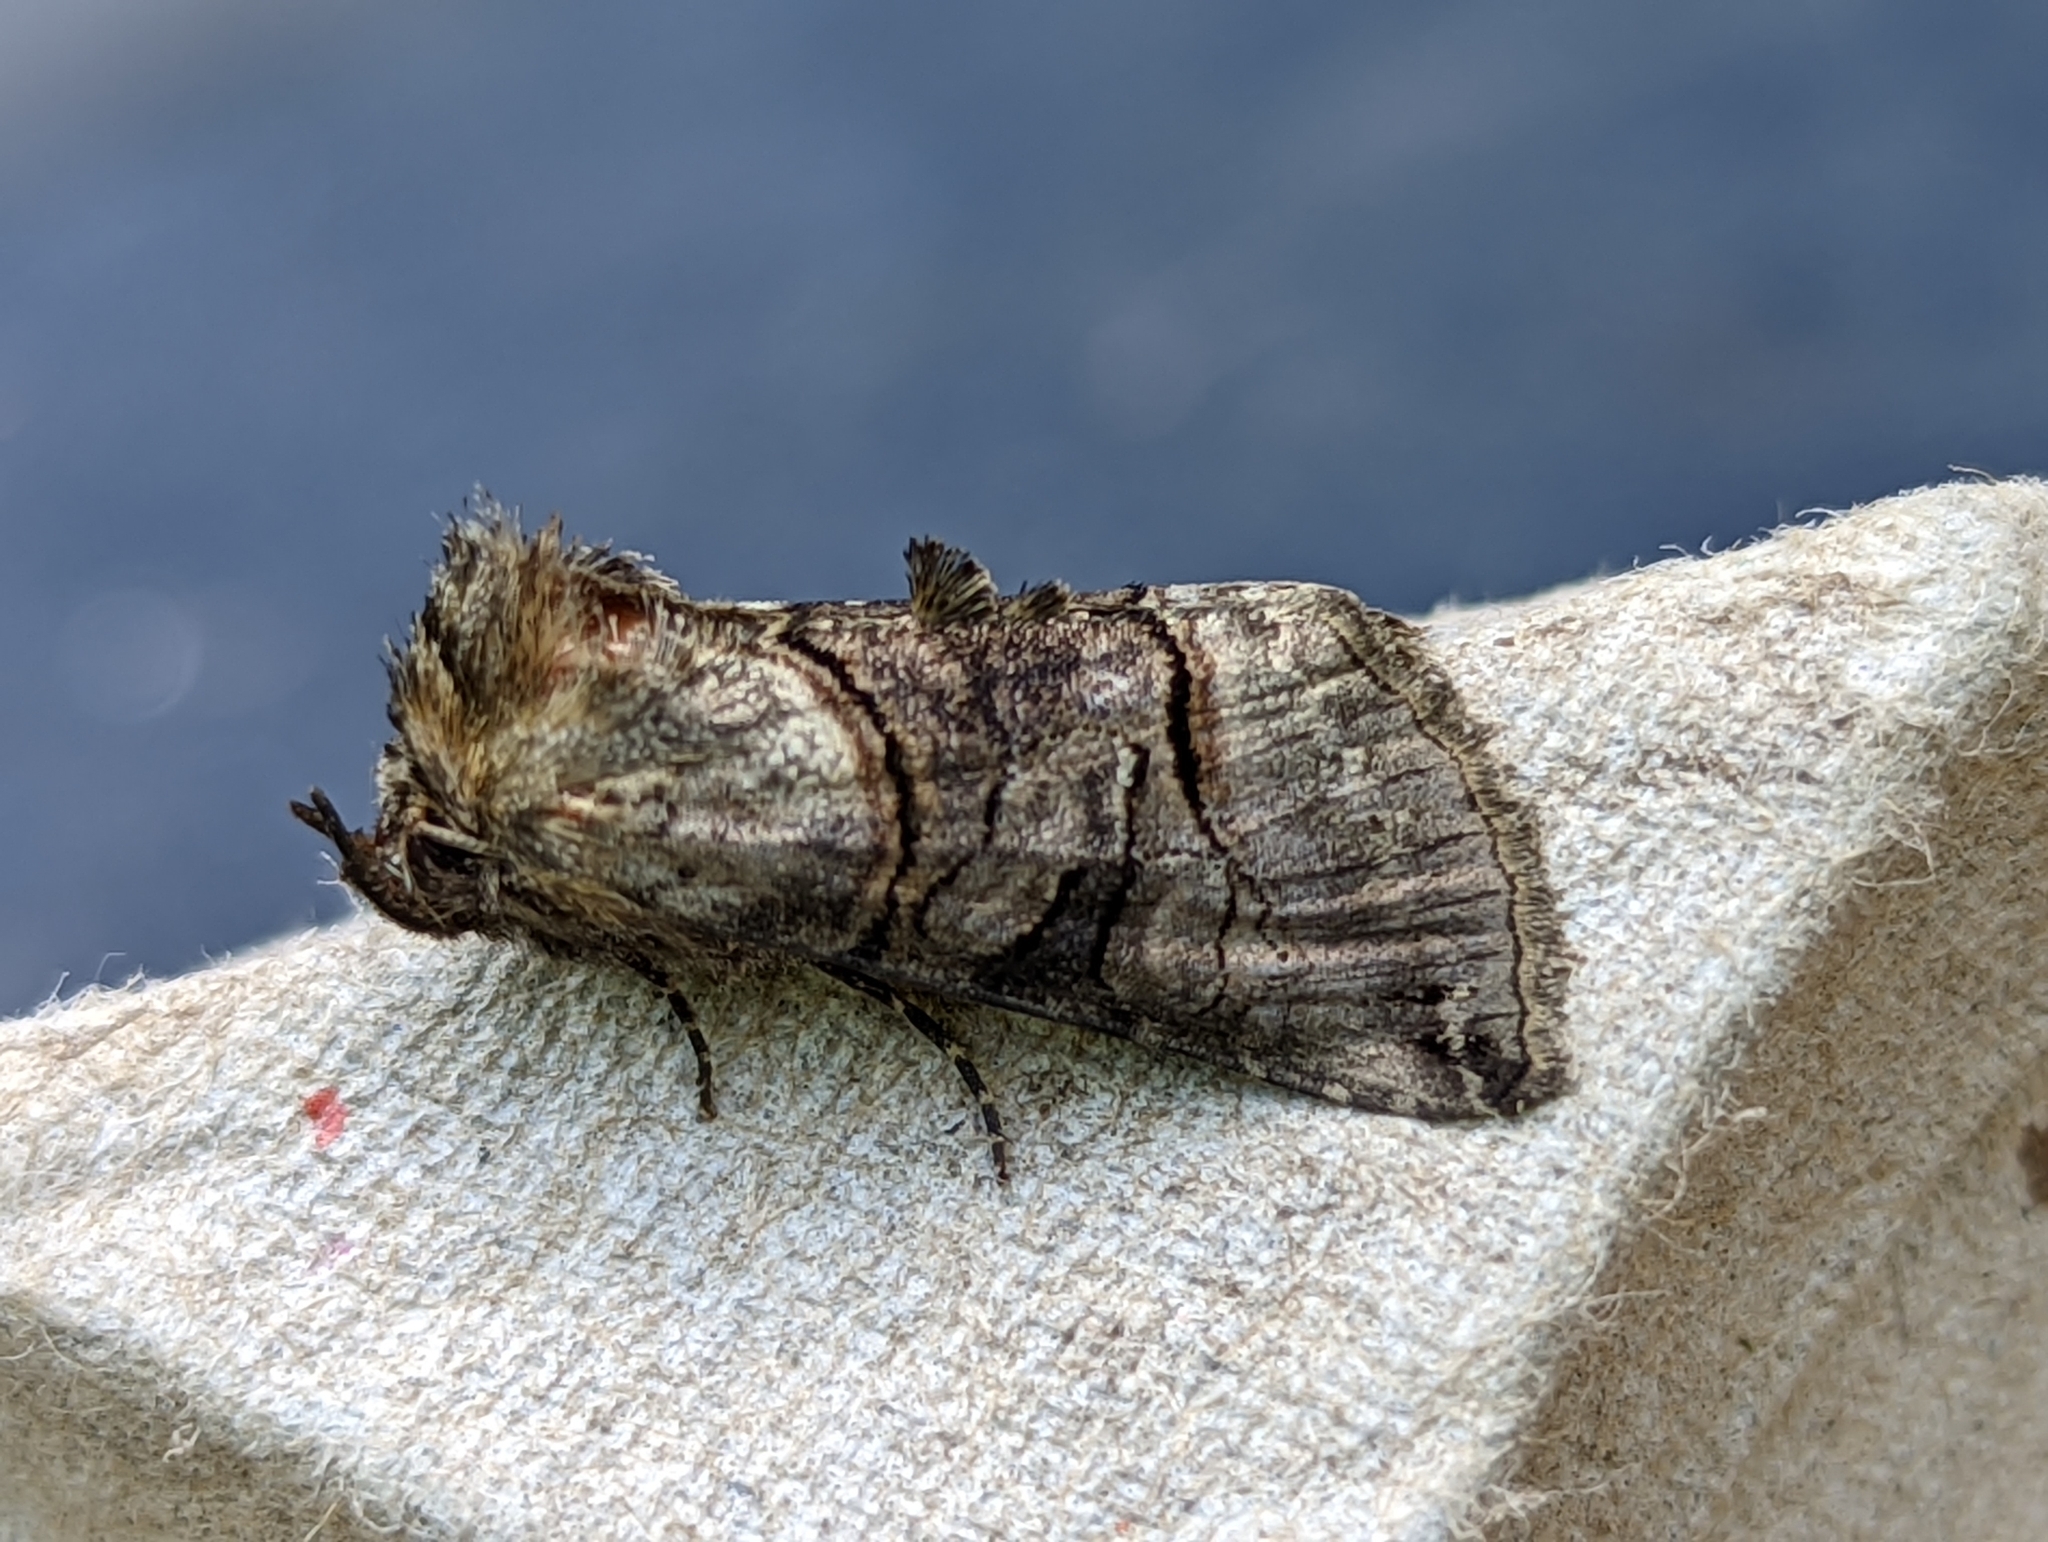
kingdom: Animalia
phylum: Arthropoda
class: Insecta
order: Lepidoptera
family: Noctuidae
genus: Abrostola
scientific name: Abrostola tripartita
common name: Spectacle
